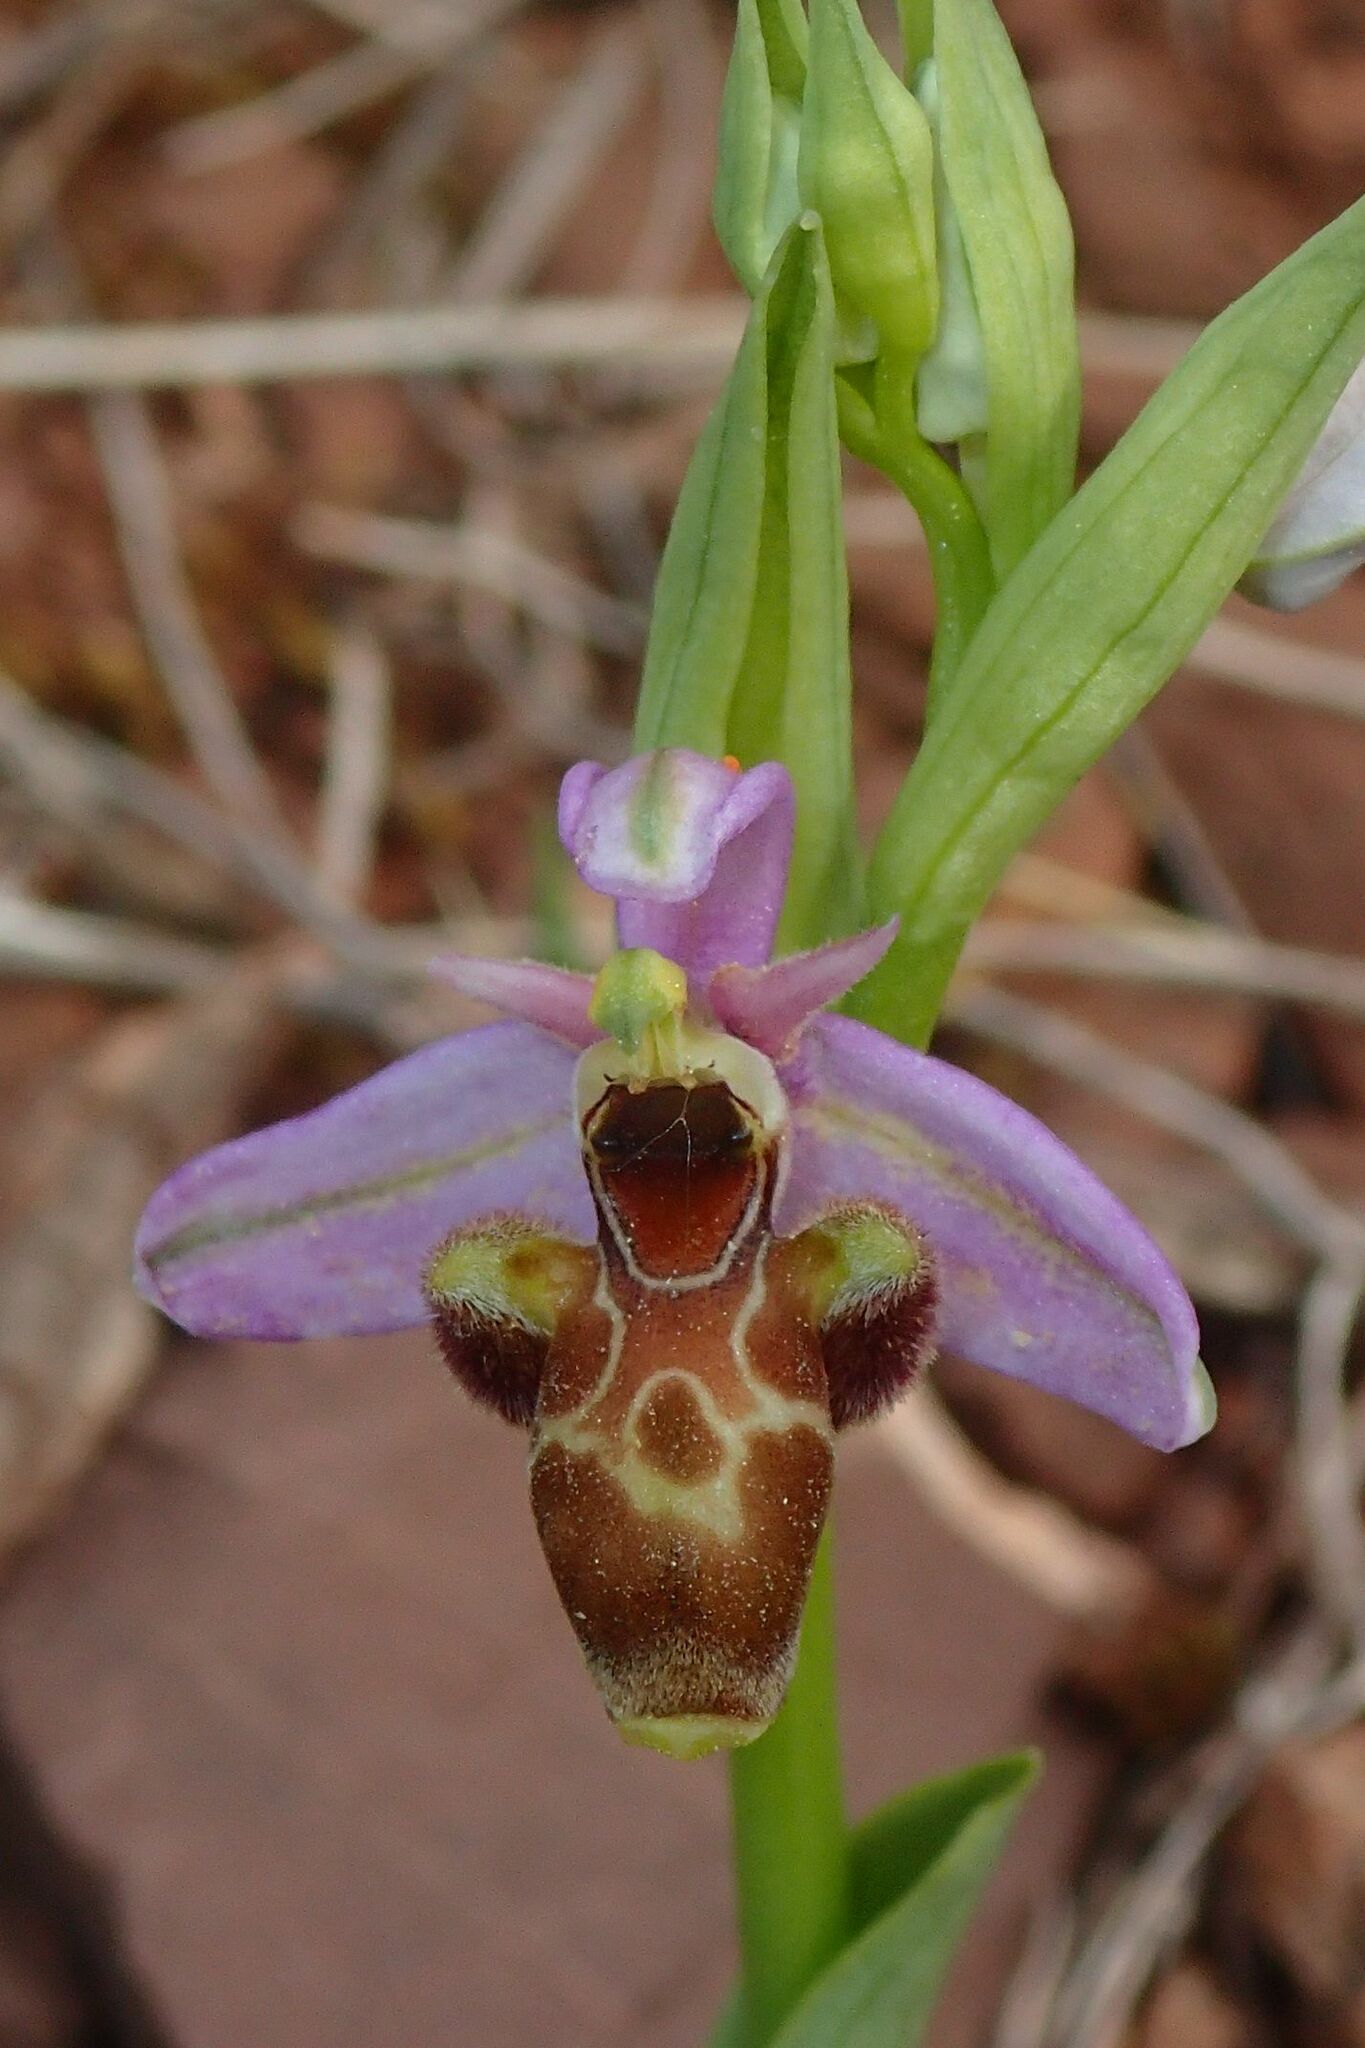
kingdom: Plantae
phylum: Tracheophyta
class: Liliopsida
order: Asparagales
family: Orchidaceae
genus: Ophrys
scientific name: Ophrys scolopax
